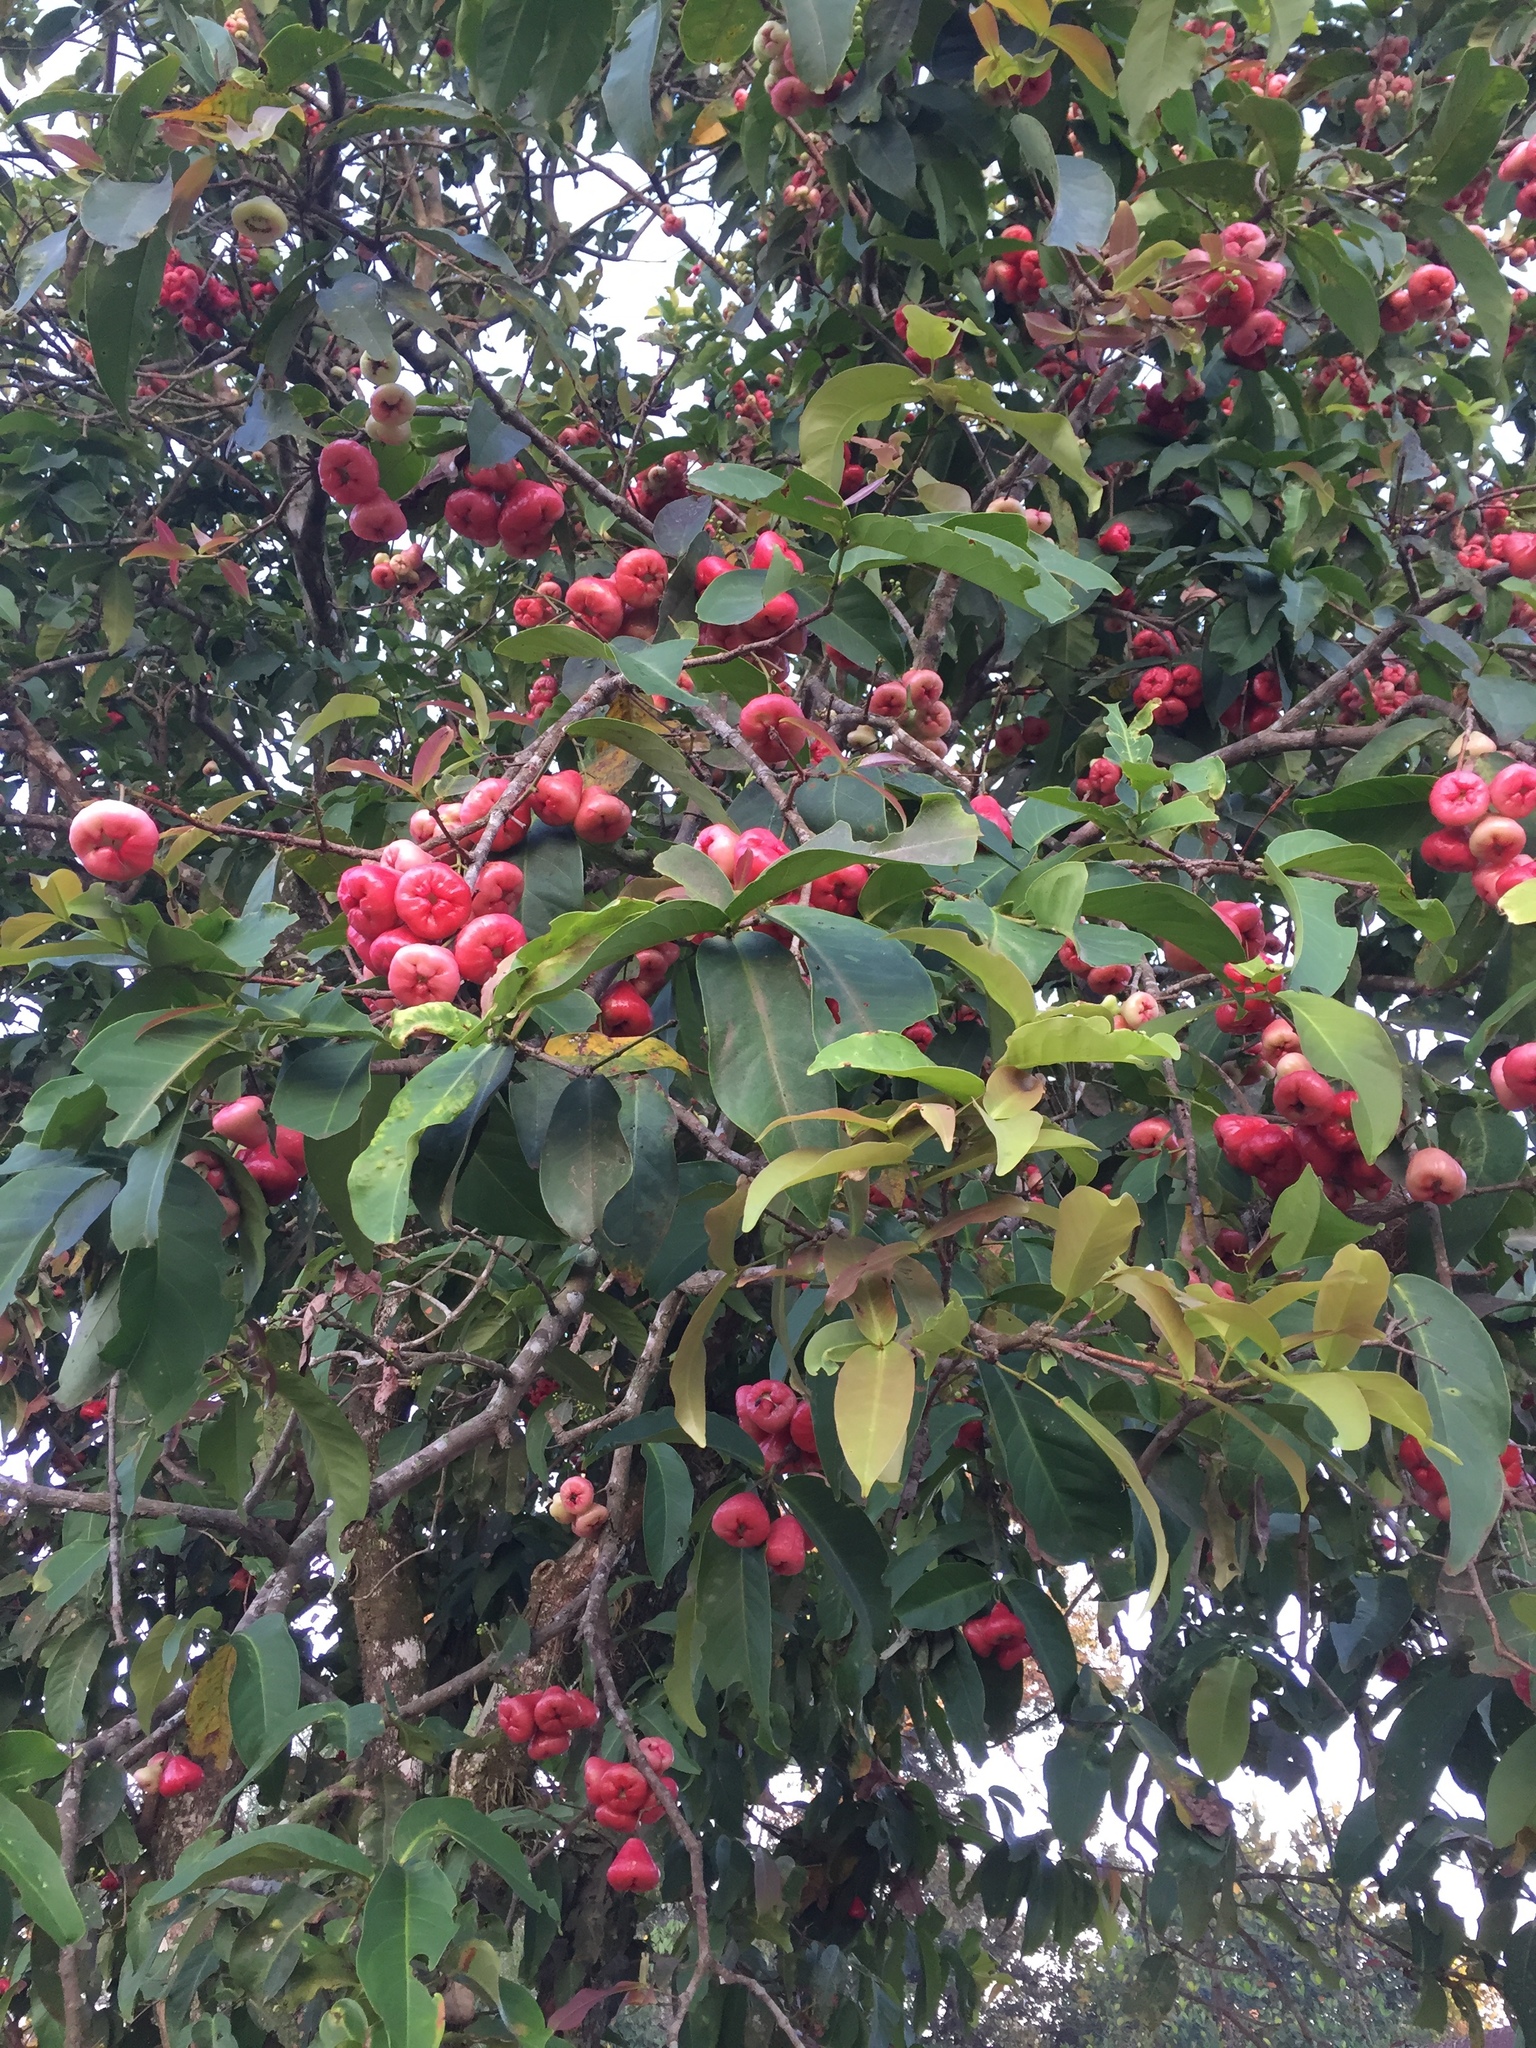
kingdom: Plantae
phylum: Tracheophyta
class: Magnoliopsida
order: Myrtales
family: Myrtaceae
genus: Syzygium
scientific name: Syzygium aqueum
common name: Water-apple
